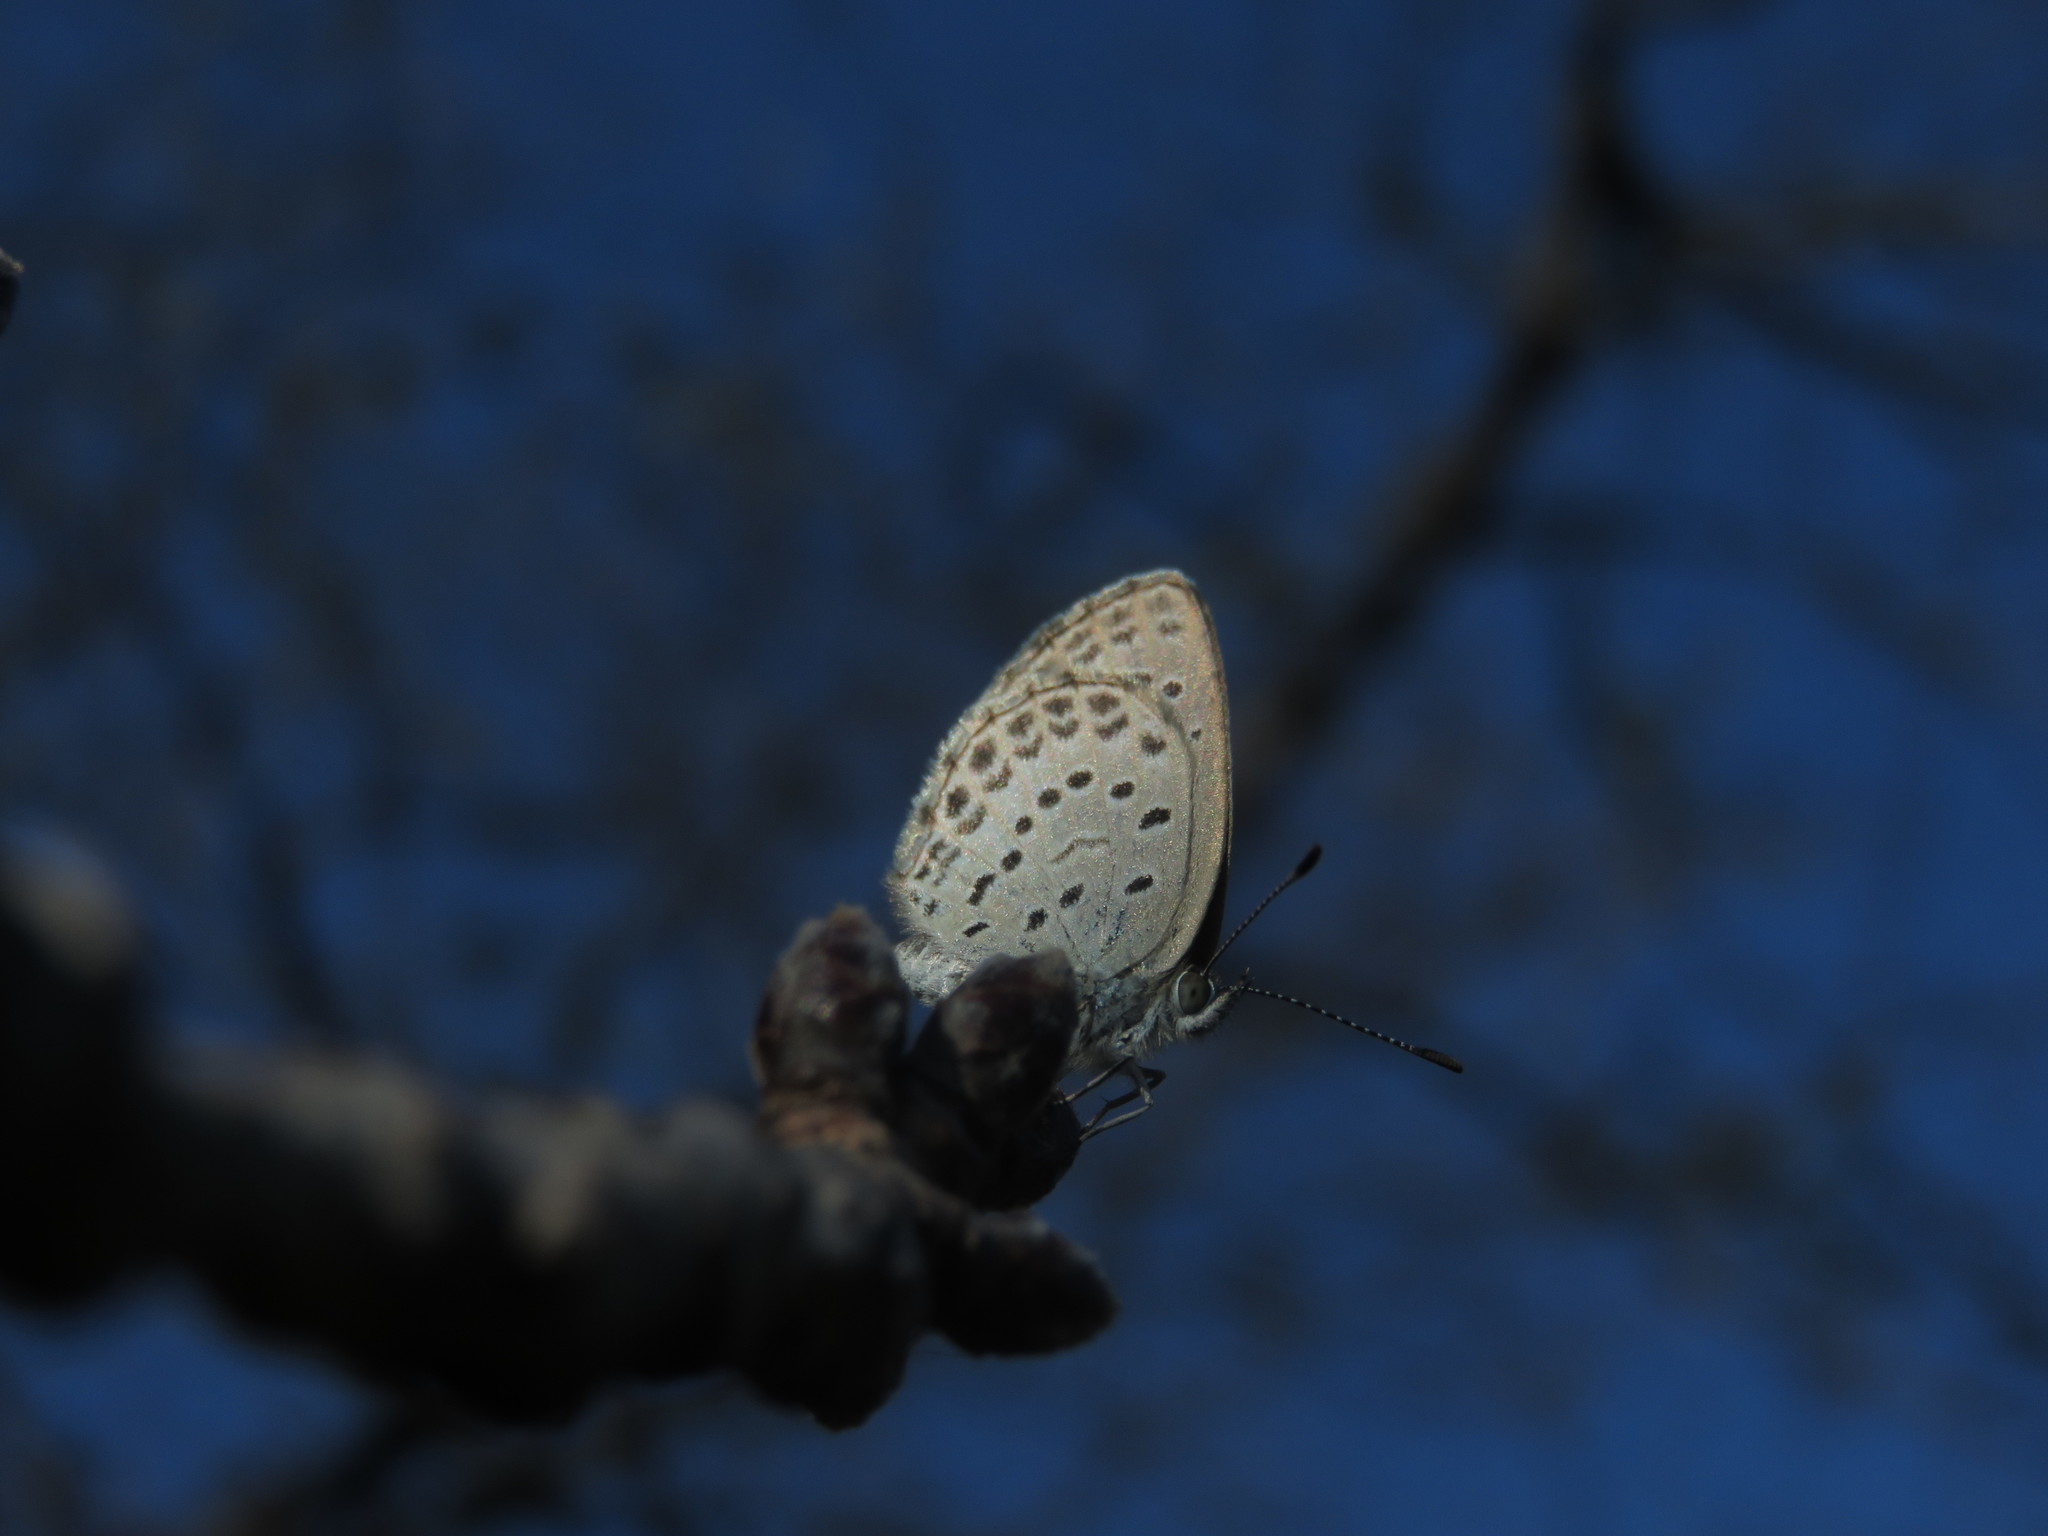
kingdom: Animalia
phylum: Arthropoda
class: Insecta
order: Lepidoptera
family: Lycaenidae
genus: Pseudozizeeria
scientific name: Pseudozizeeria maha
